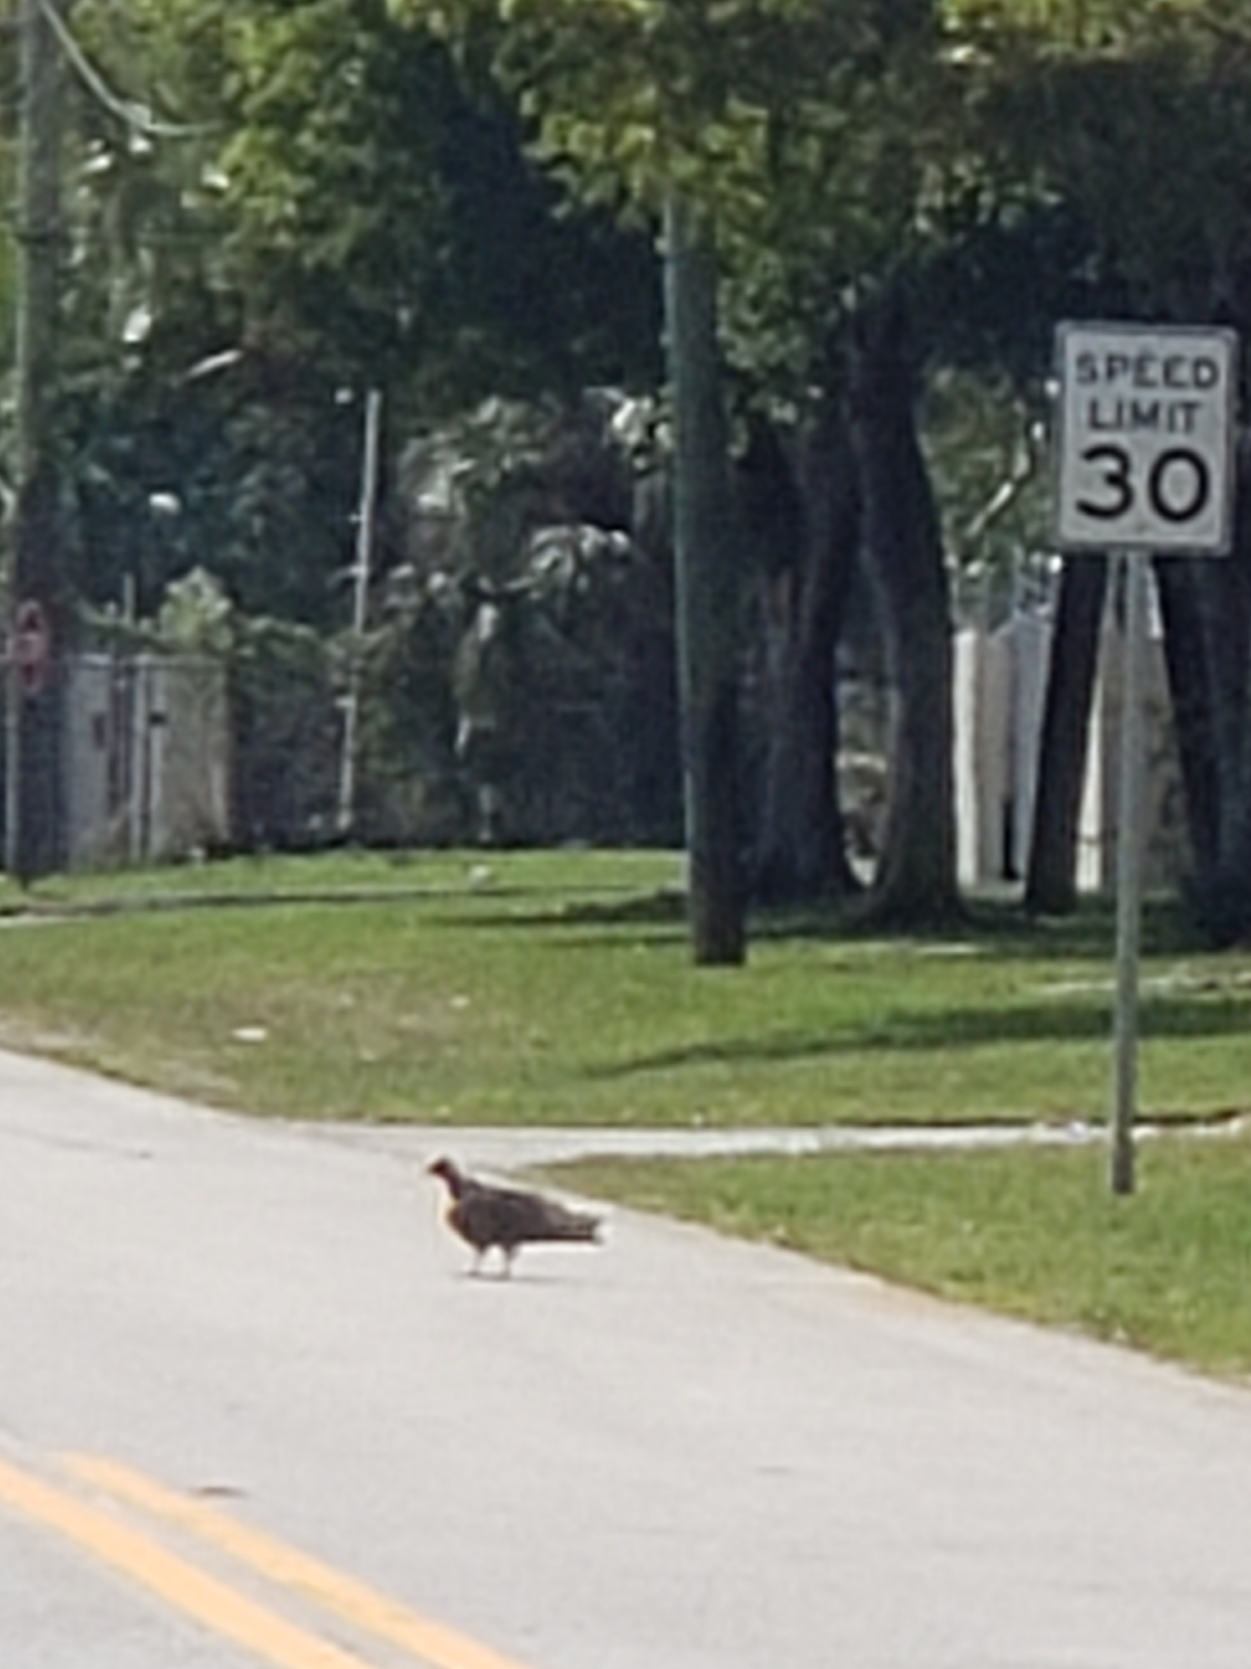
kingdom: Animalia
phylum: Chordata
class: Aves
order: Accipitriformes
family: Cathartidae
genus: Cathartes
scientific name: Cathartes aura
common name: Turkey vulture
